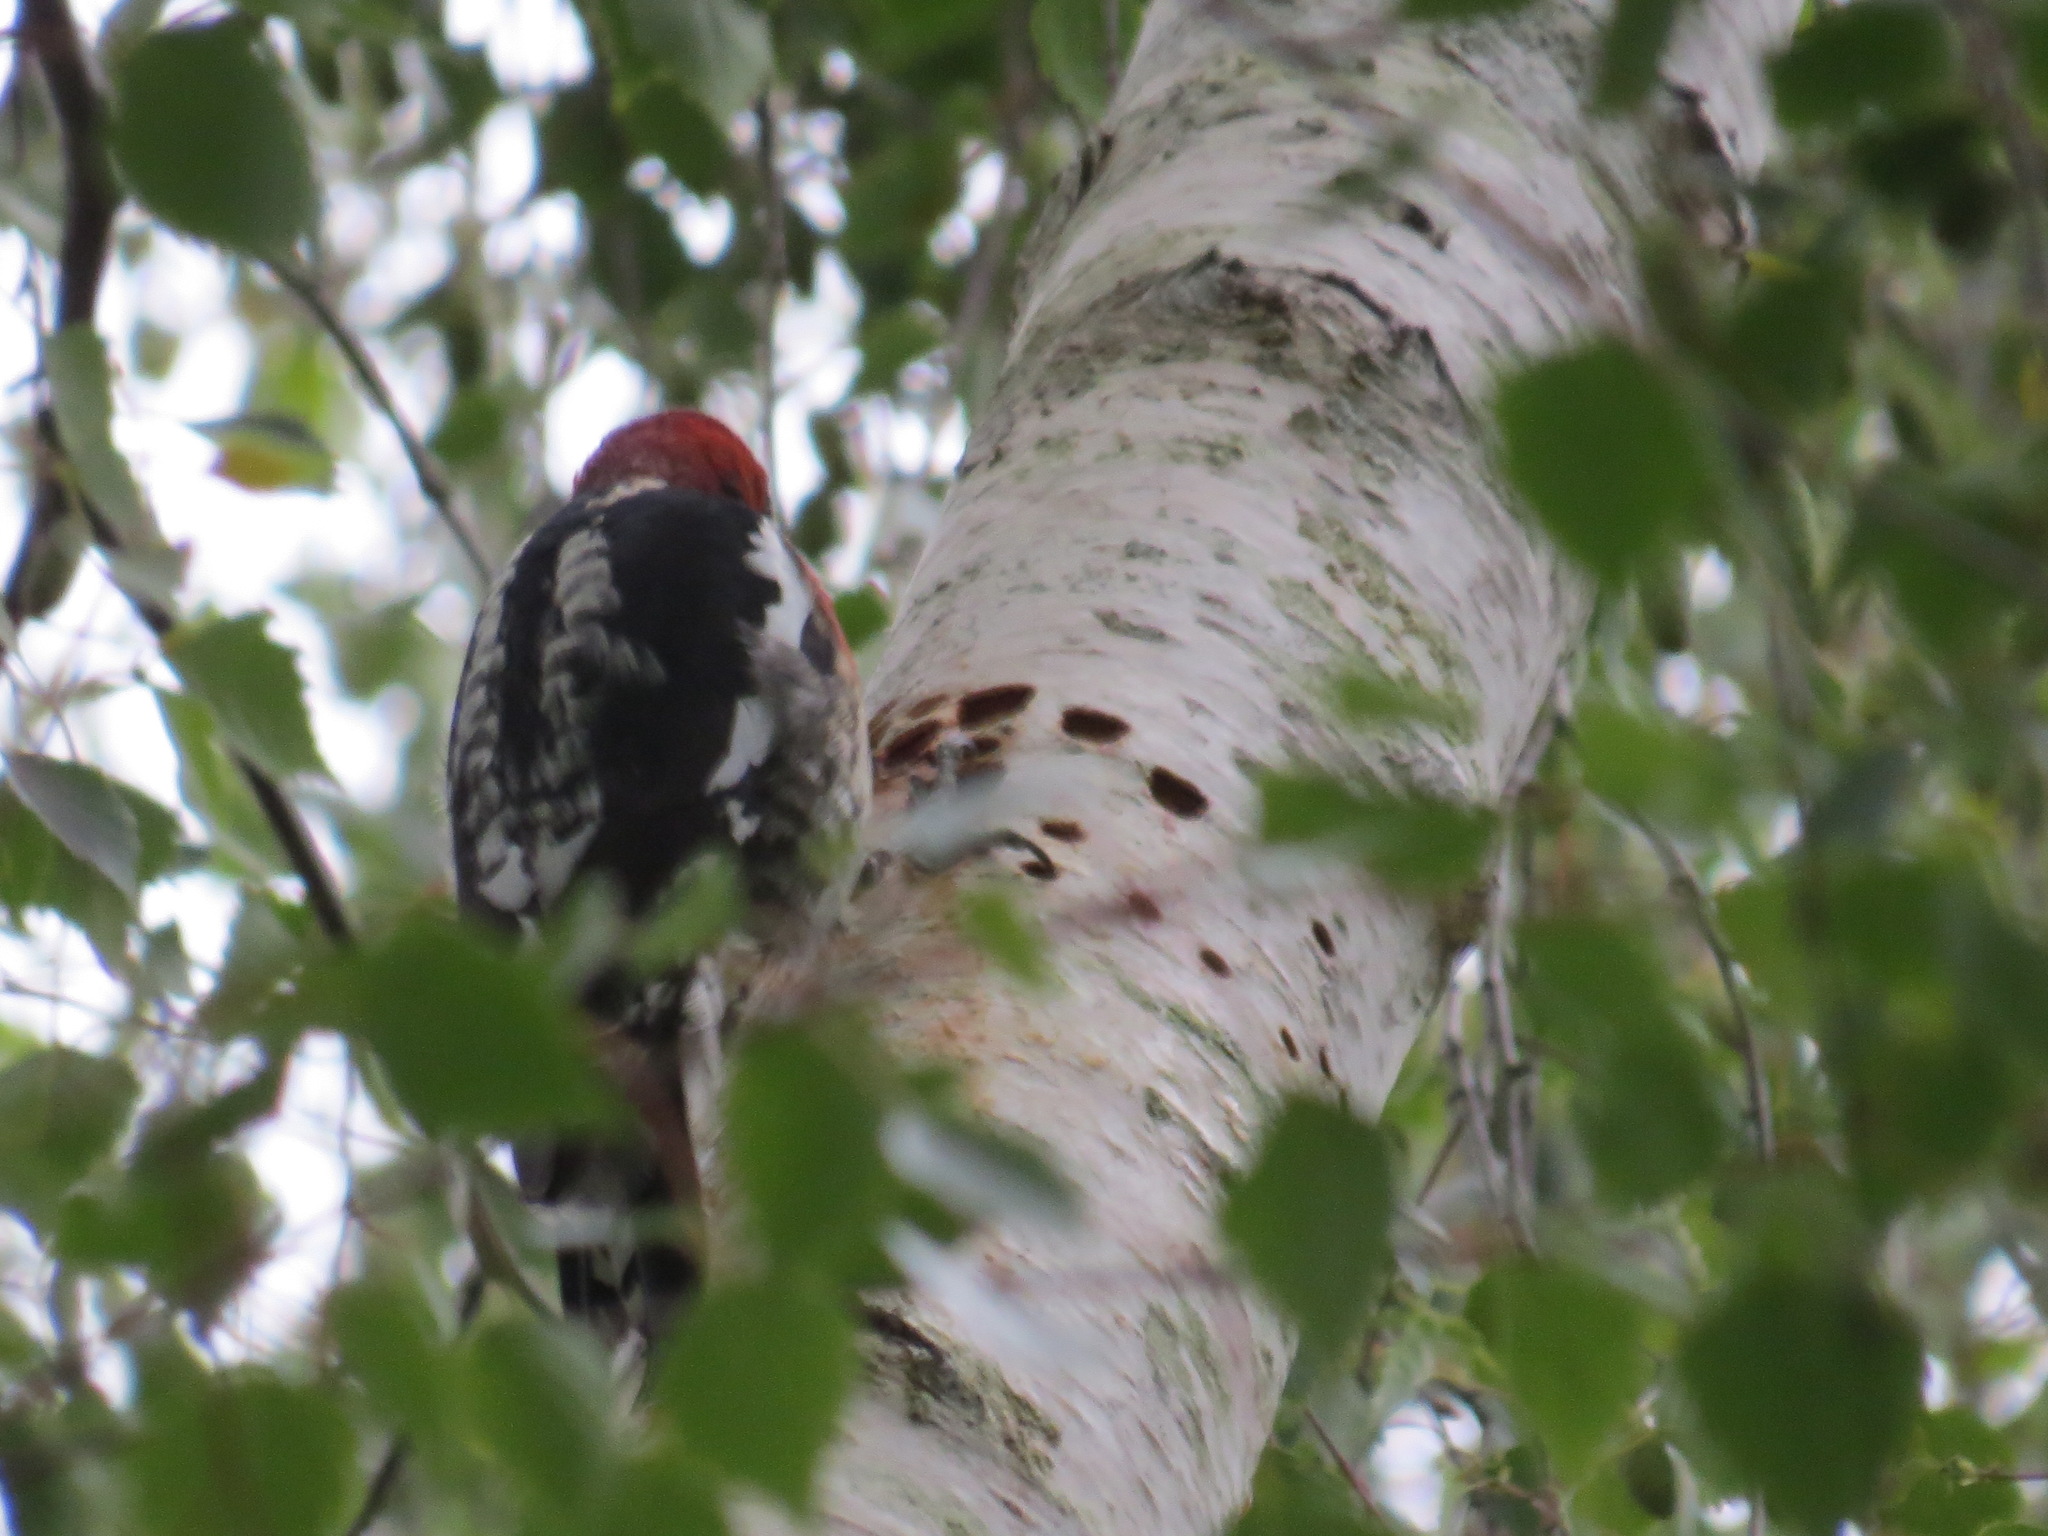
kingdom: Animalia
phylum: Chordata
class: Aves
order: Piciformes
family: Picidae
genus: Sphyrapicus
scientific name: Sphyrapicus ruber
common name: Red-breasted sapsucker
